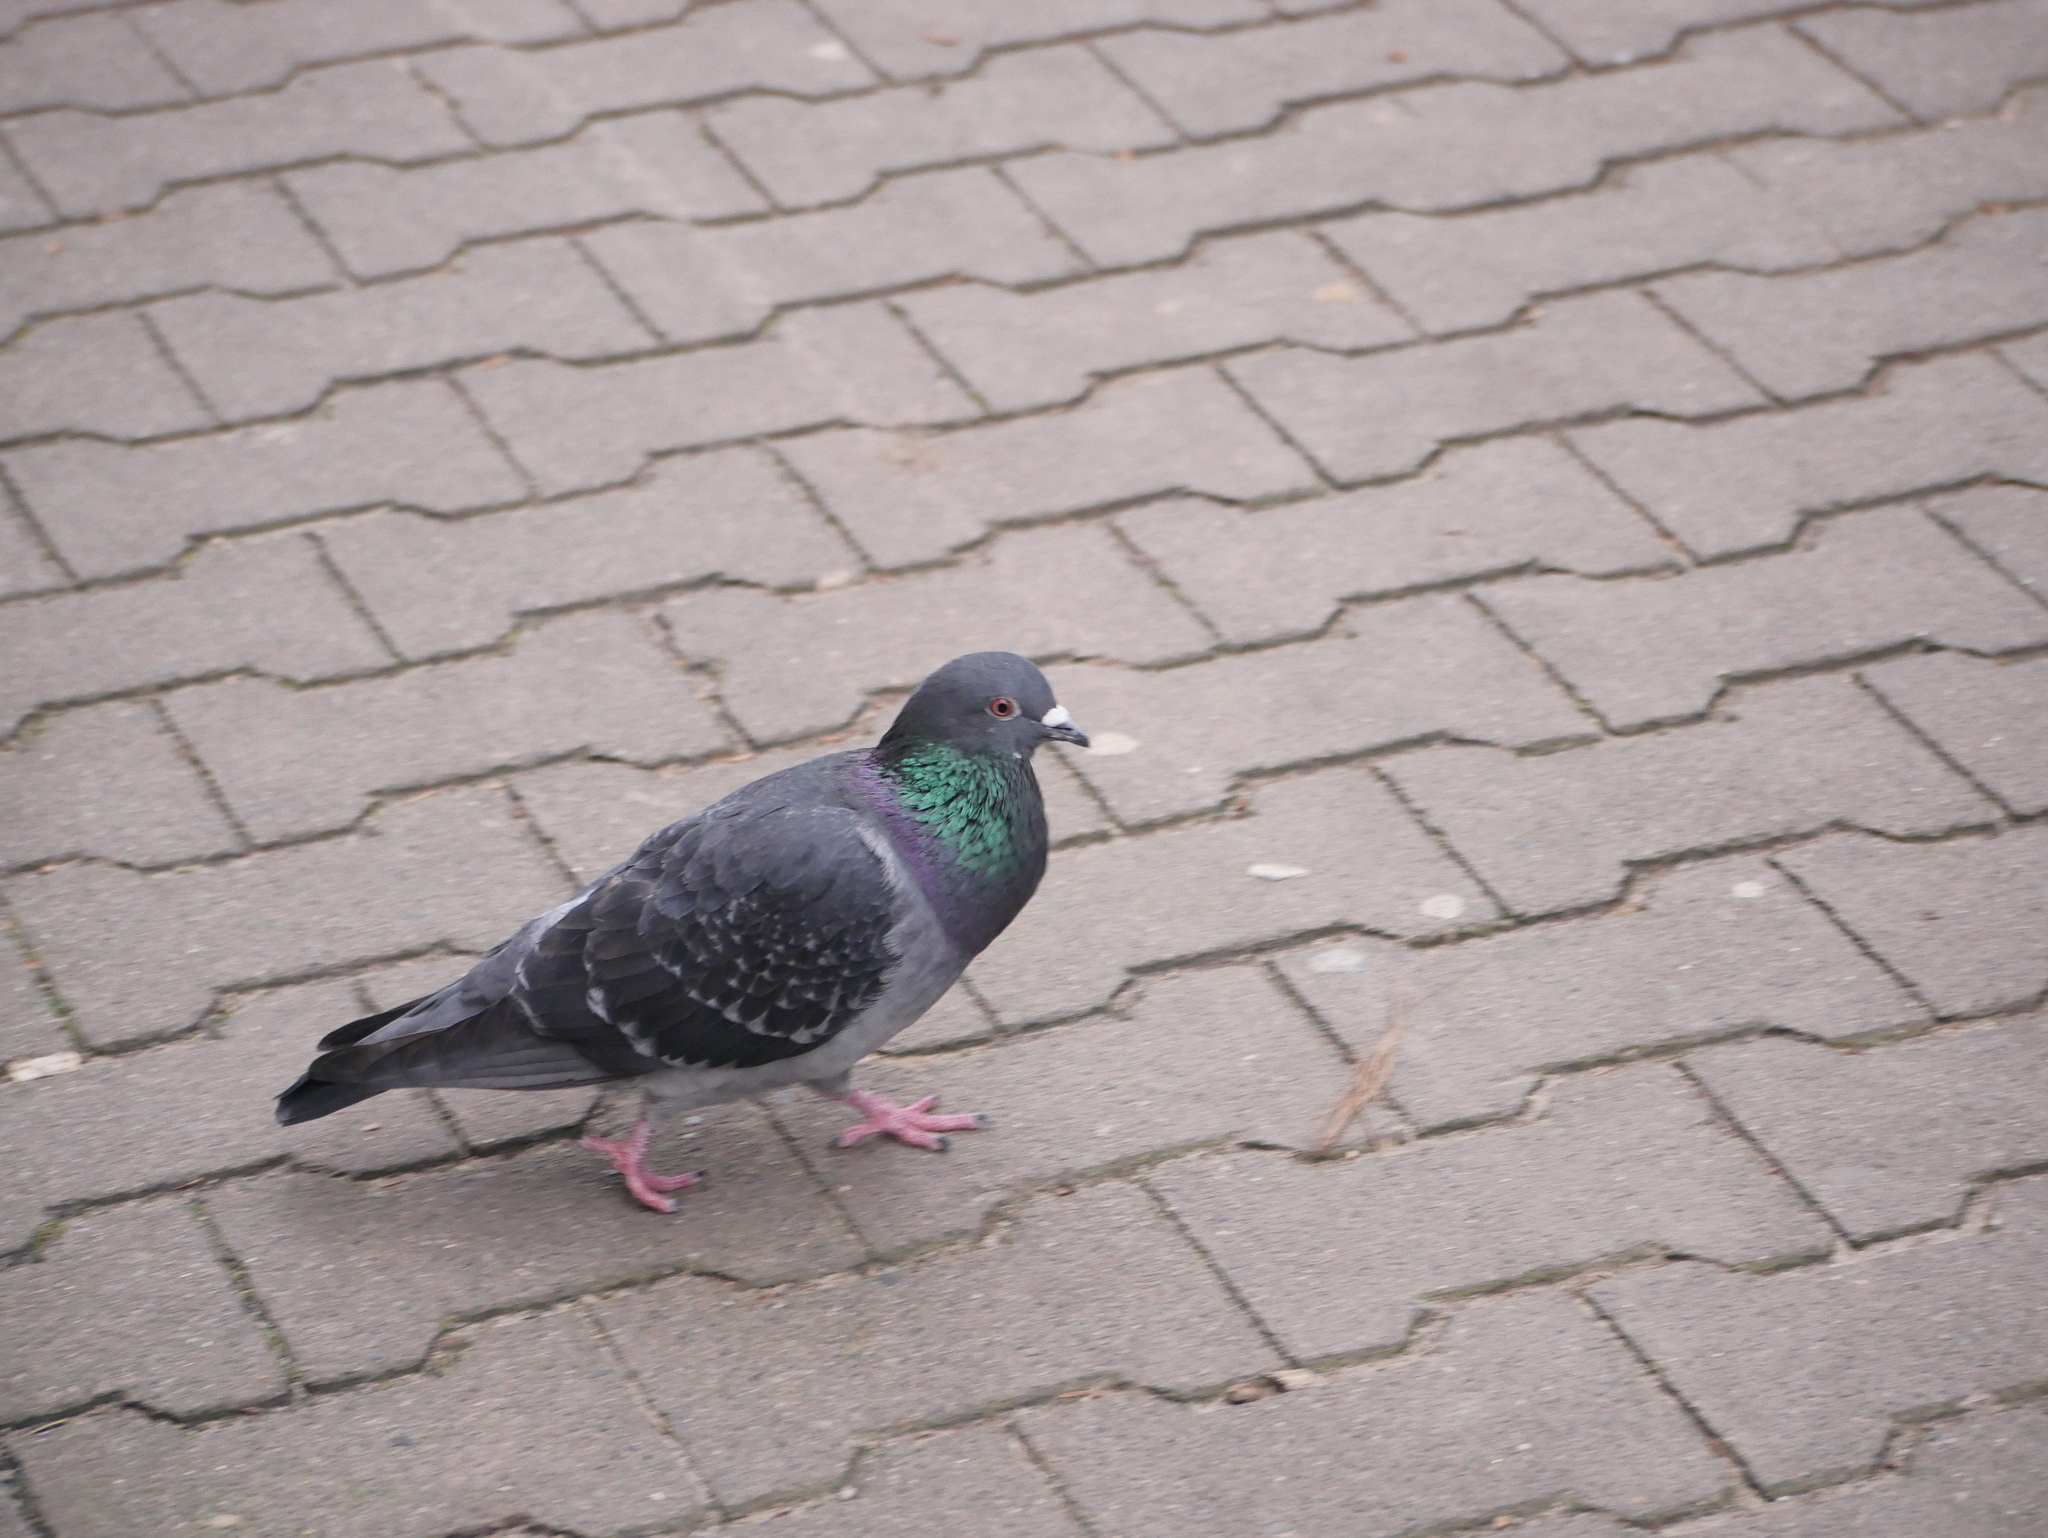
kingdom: Animalia
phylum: Chordata
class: Aves
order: Columbiformes
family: Columbidae
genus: Columba
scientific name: Columba livia
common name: Rock pigeon
